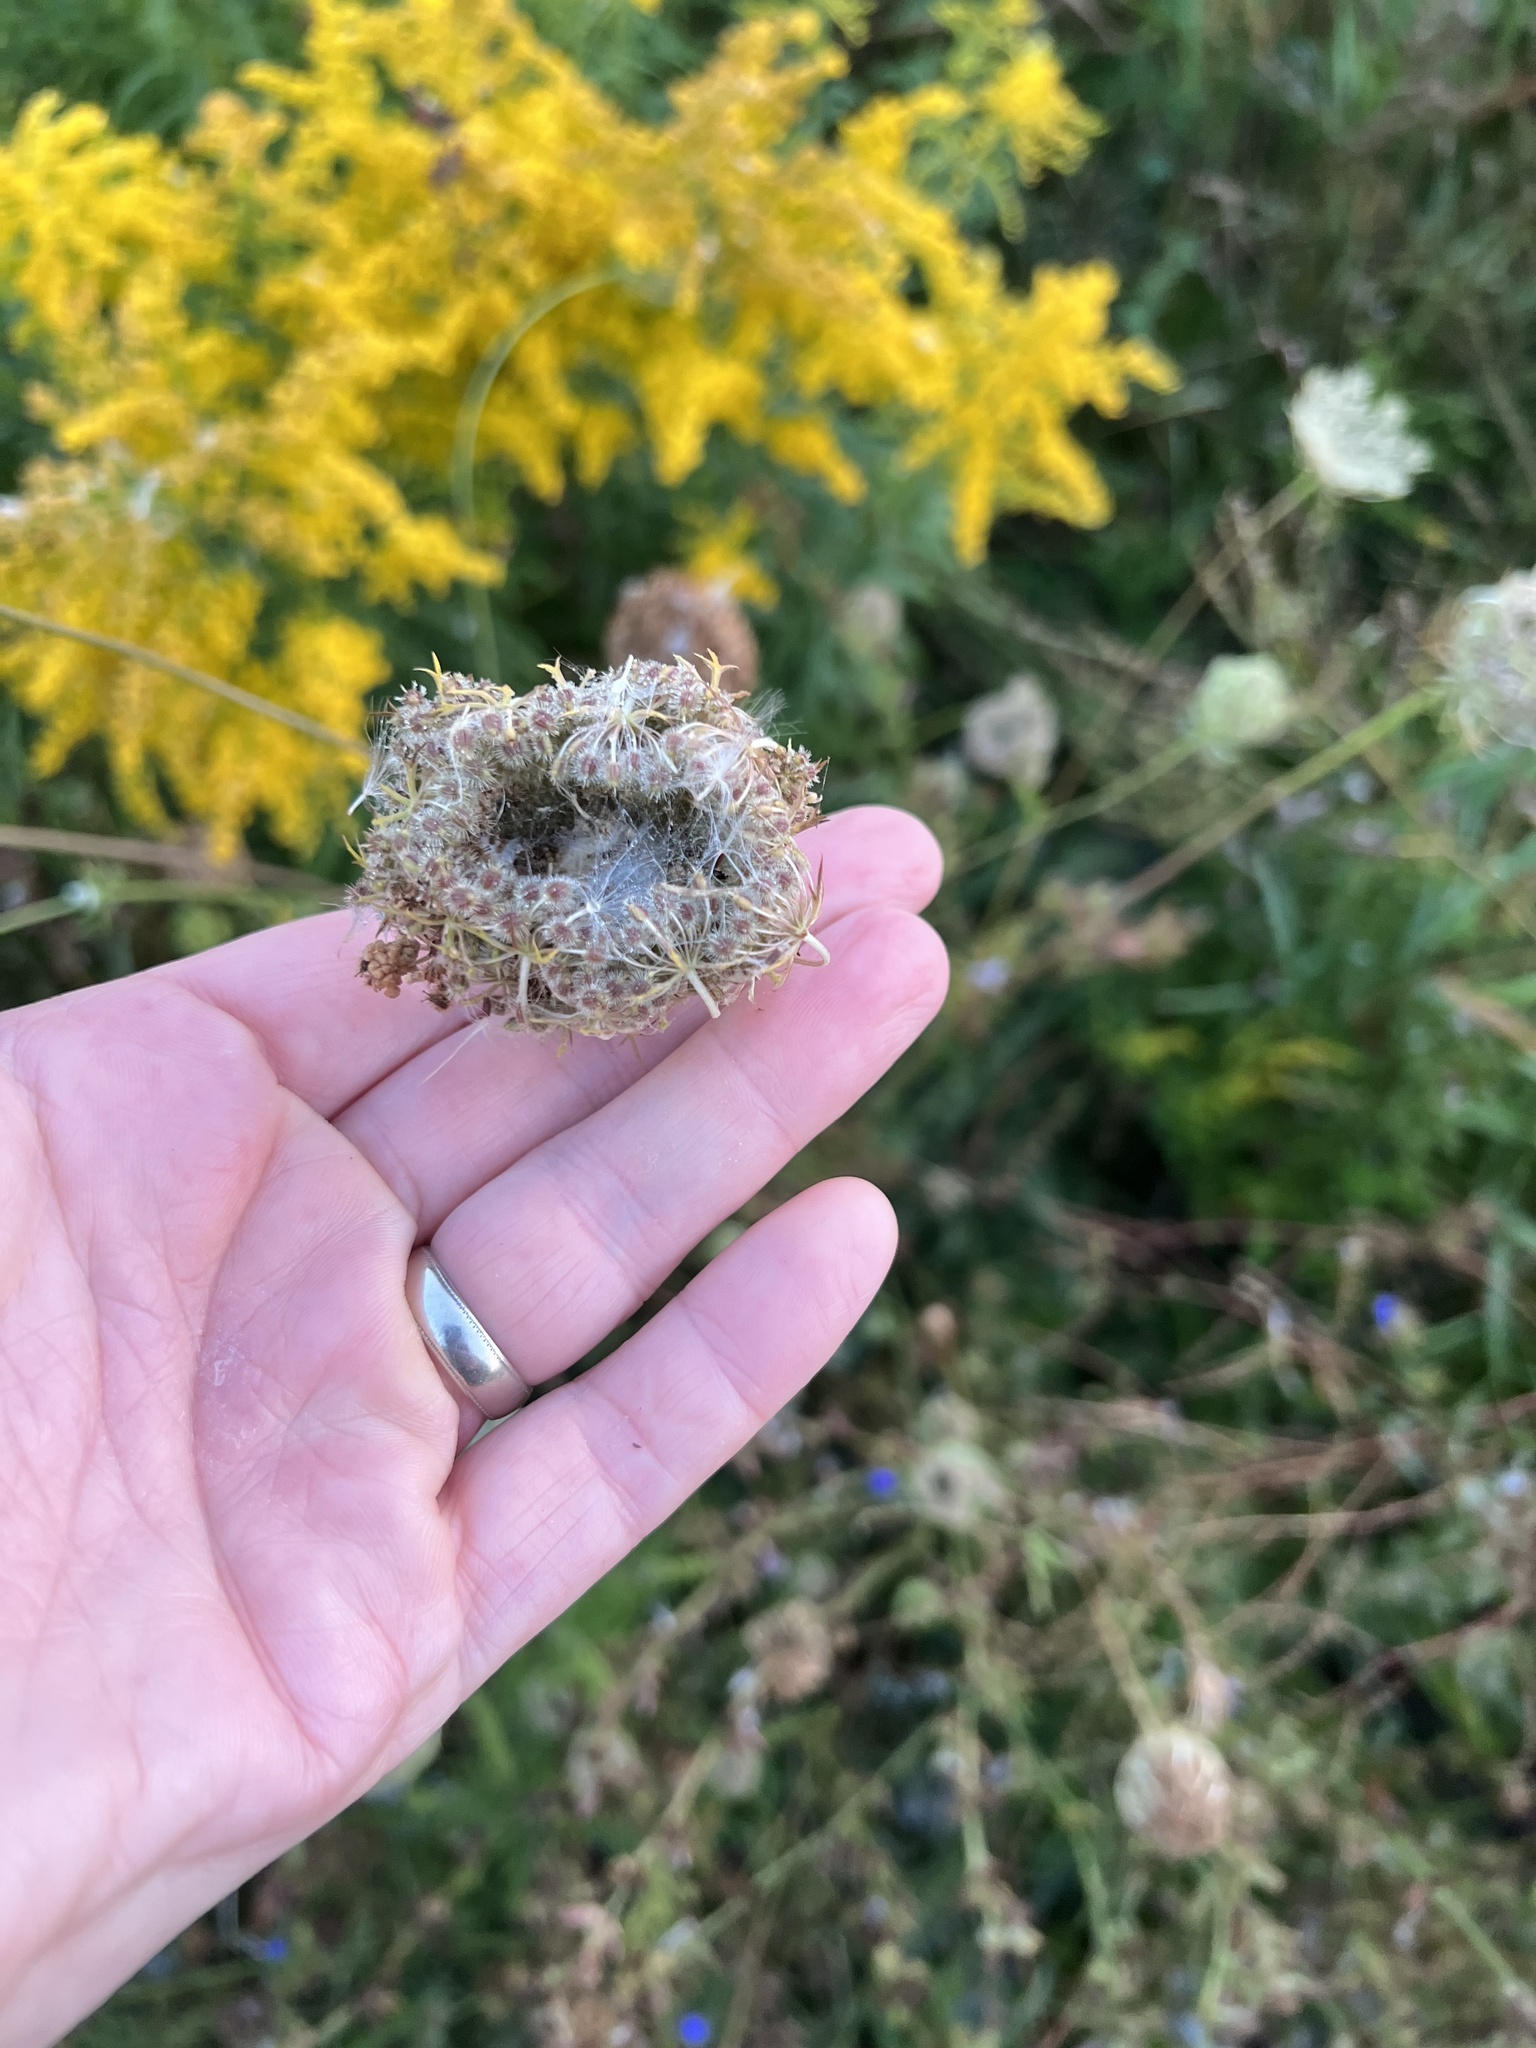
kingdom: Plantae
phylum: Tracheophyta
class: Magnoliopsida
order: Apiales
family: Apiaceae
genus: Daucus
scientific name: Daucus carota
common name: Wild carrot
